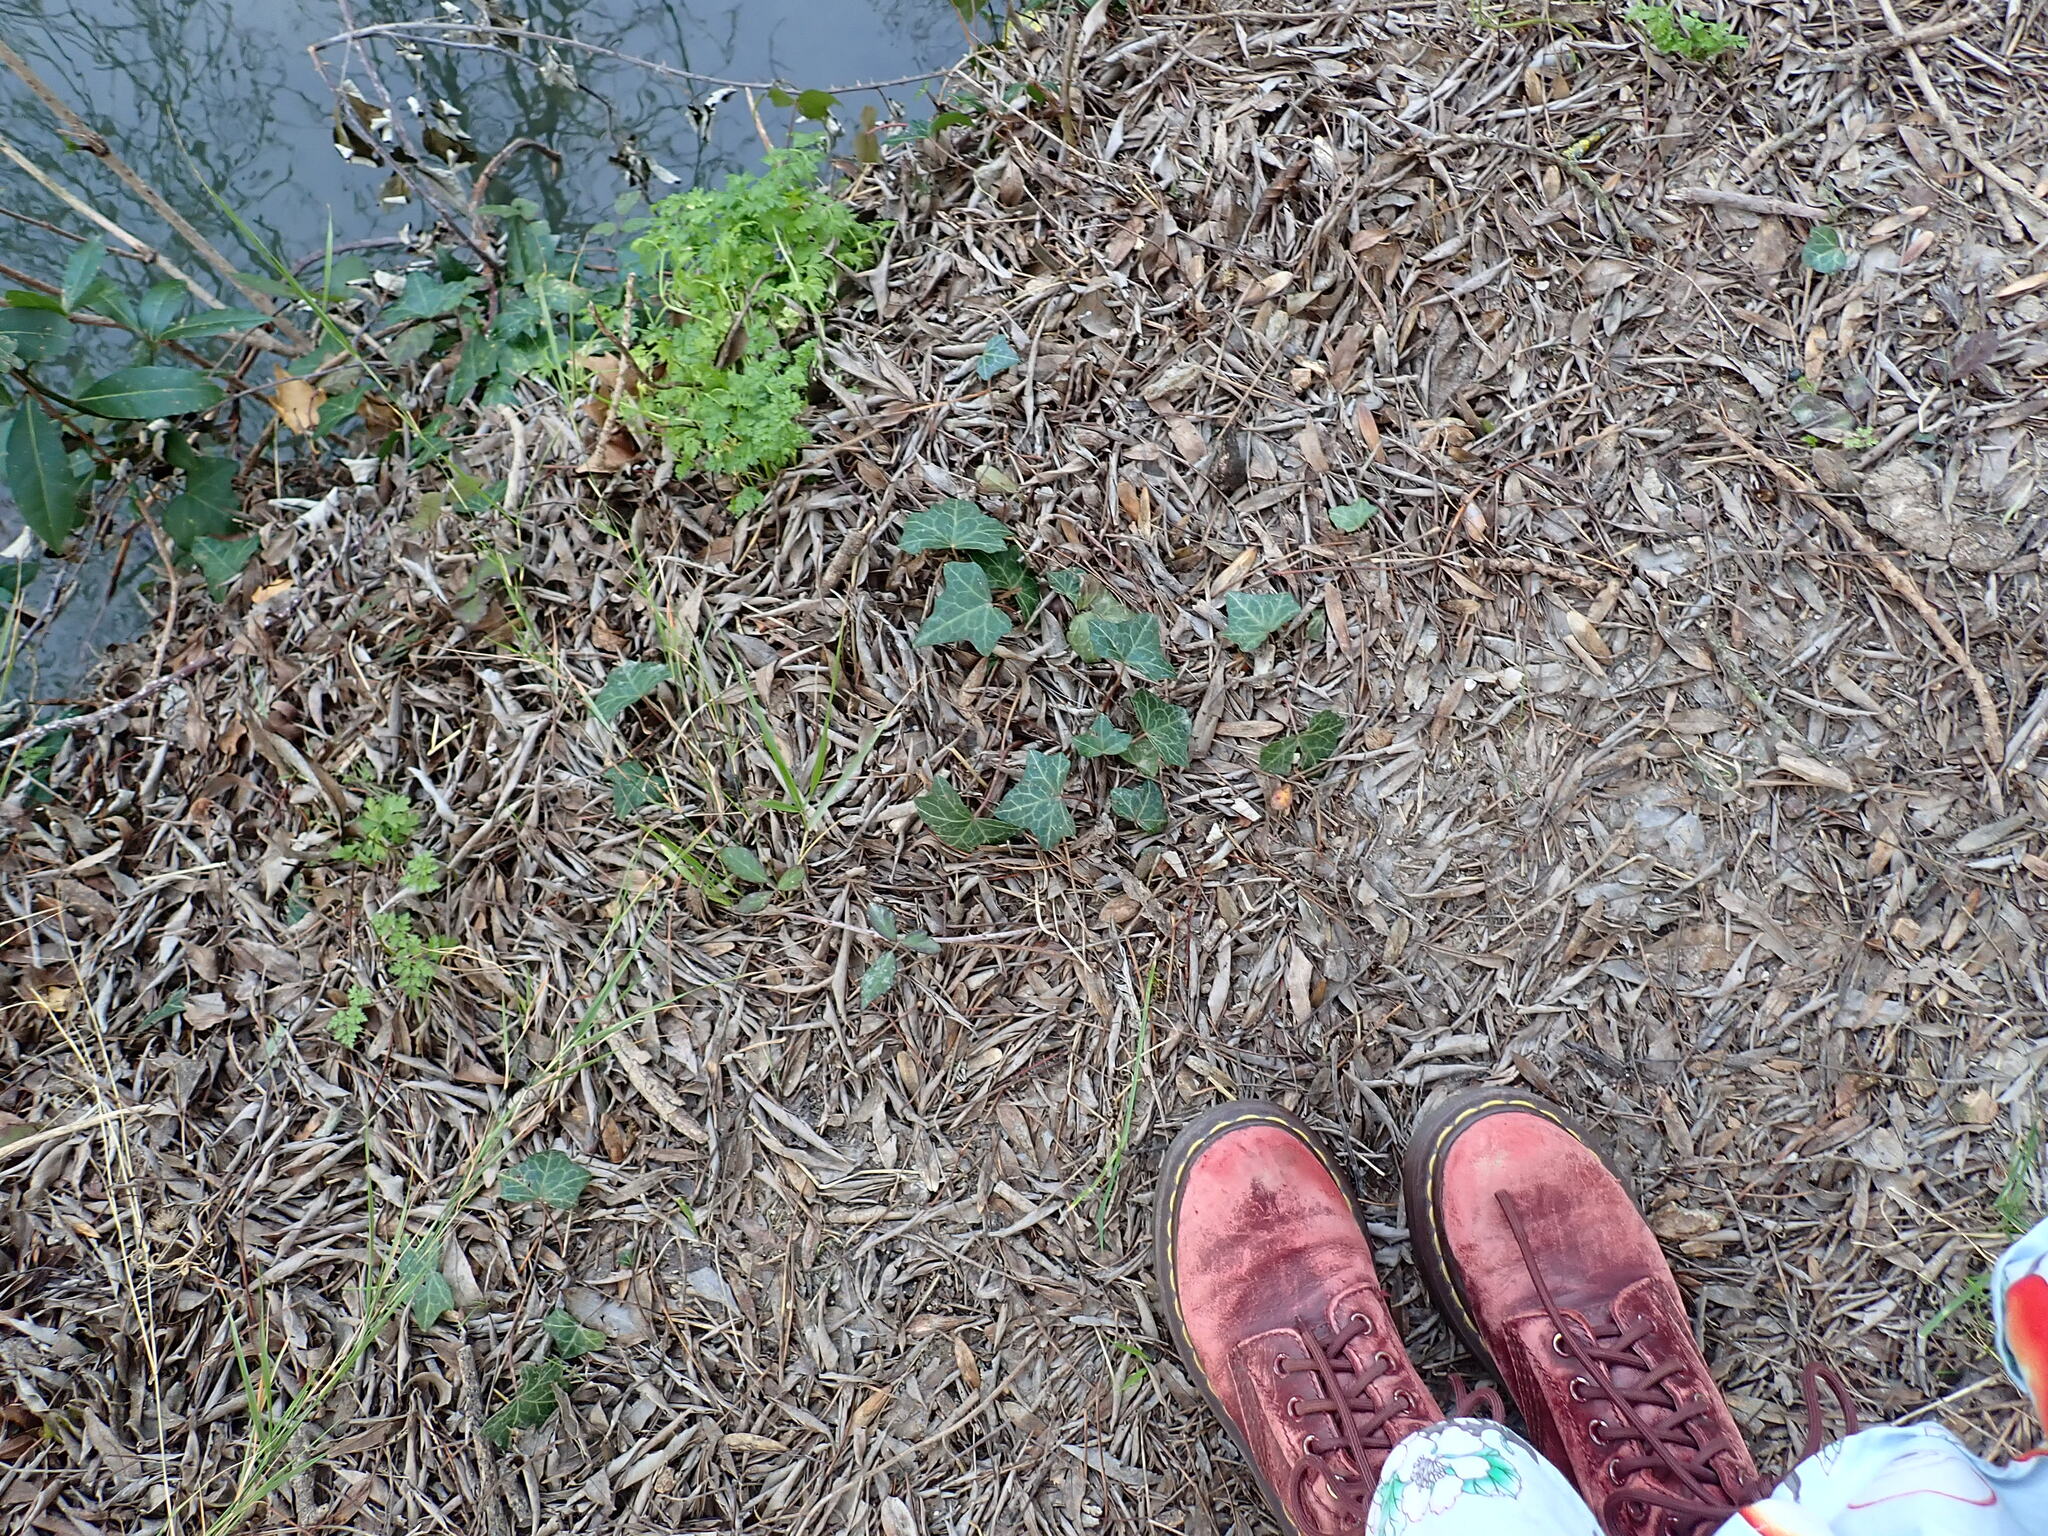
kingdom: Plantae
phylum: Tracheophyta
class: Magnoliopsida
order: Apiales
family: Araliaceae
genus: Hedera
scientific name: Hedera helix
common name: Ivy
